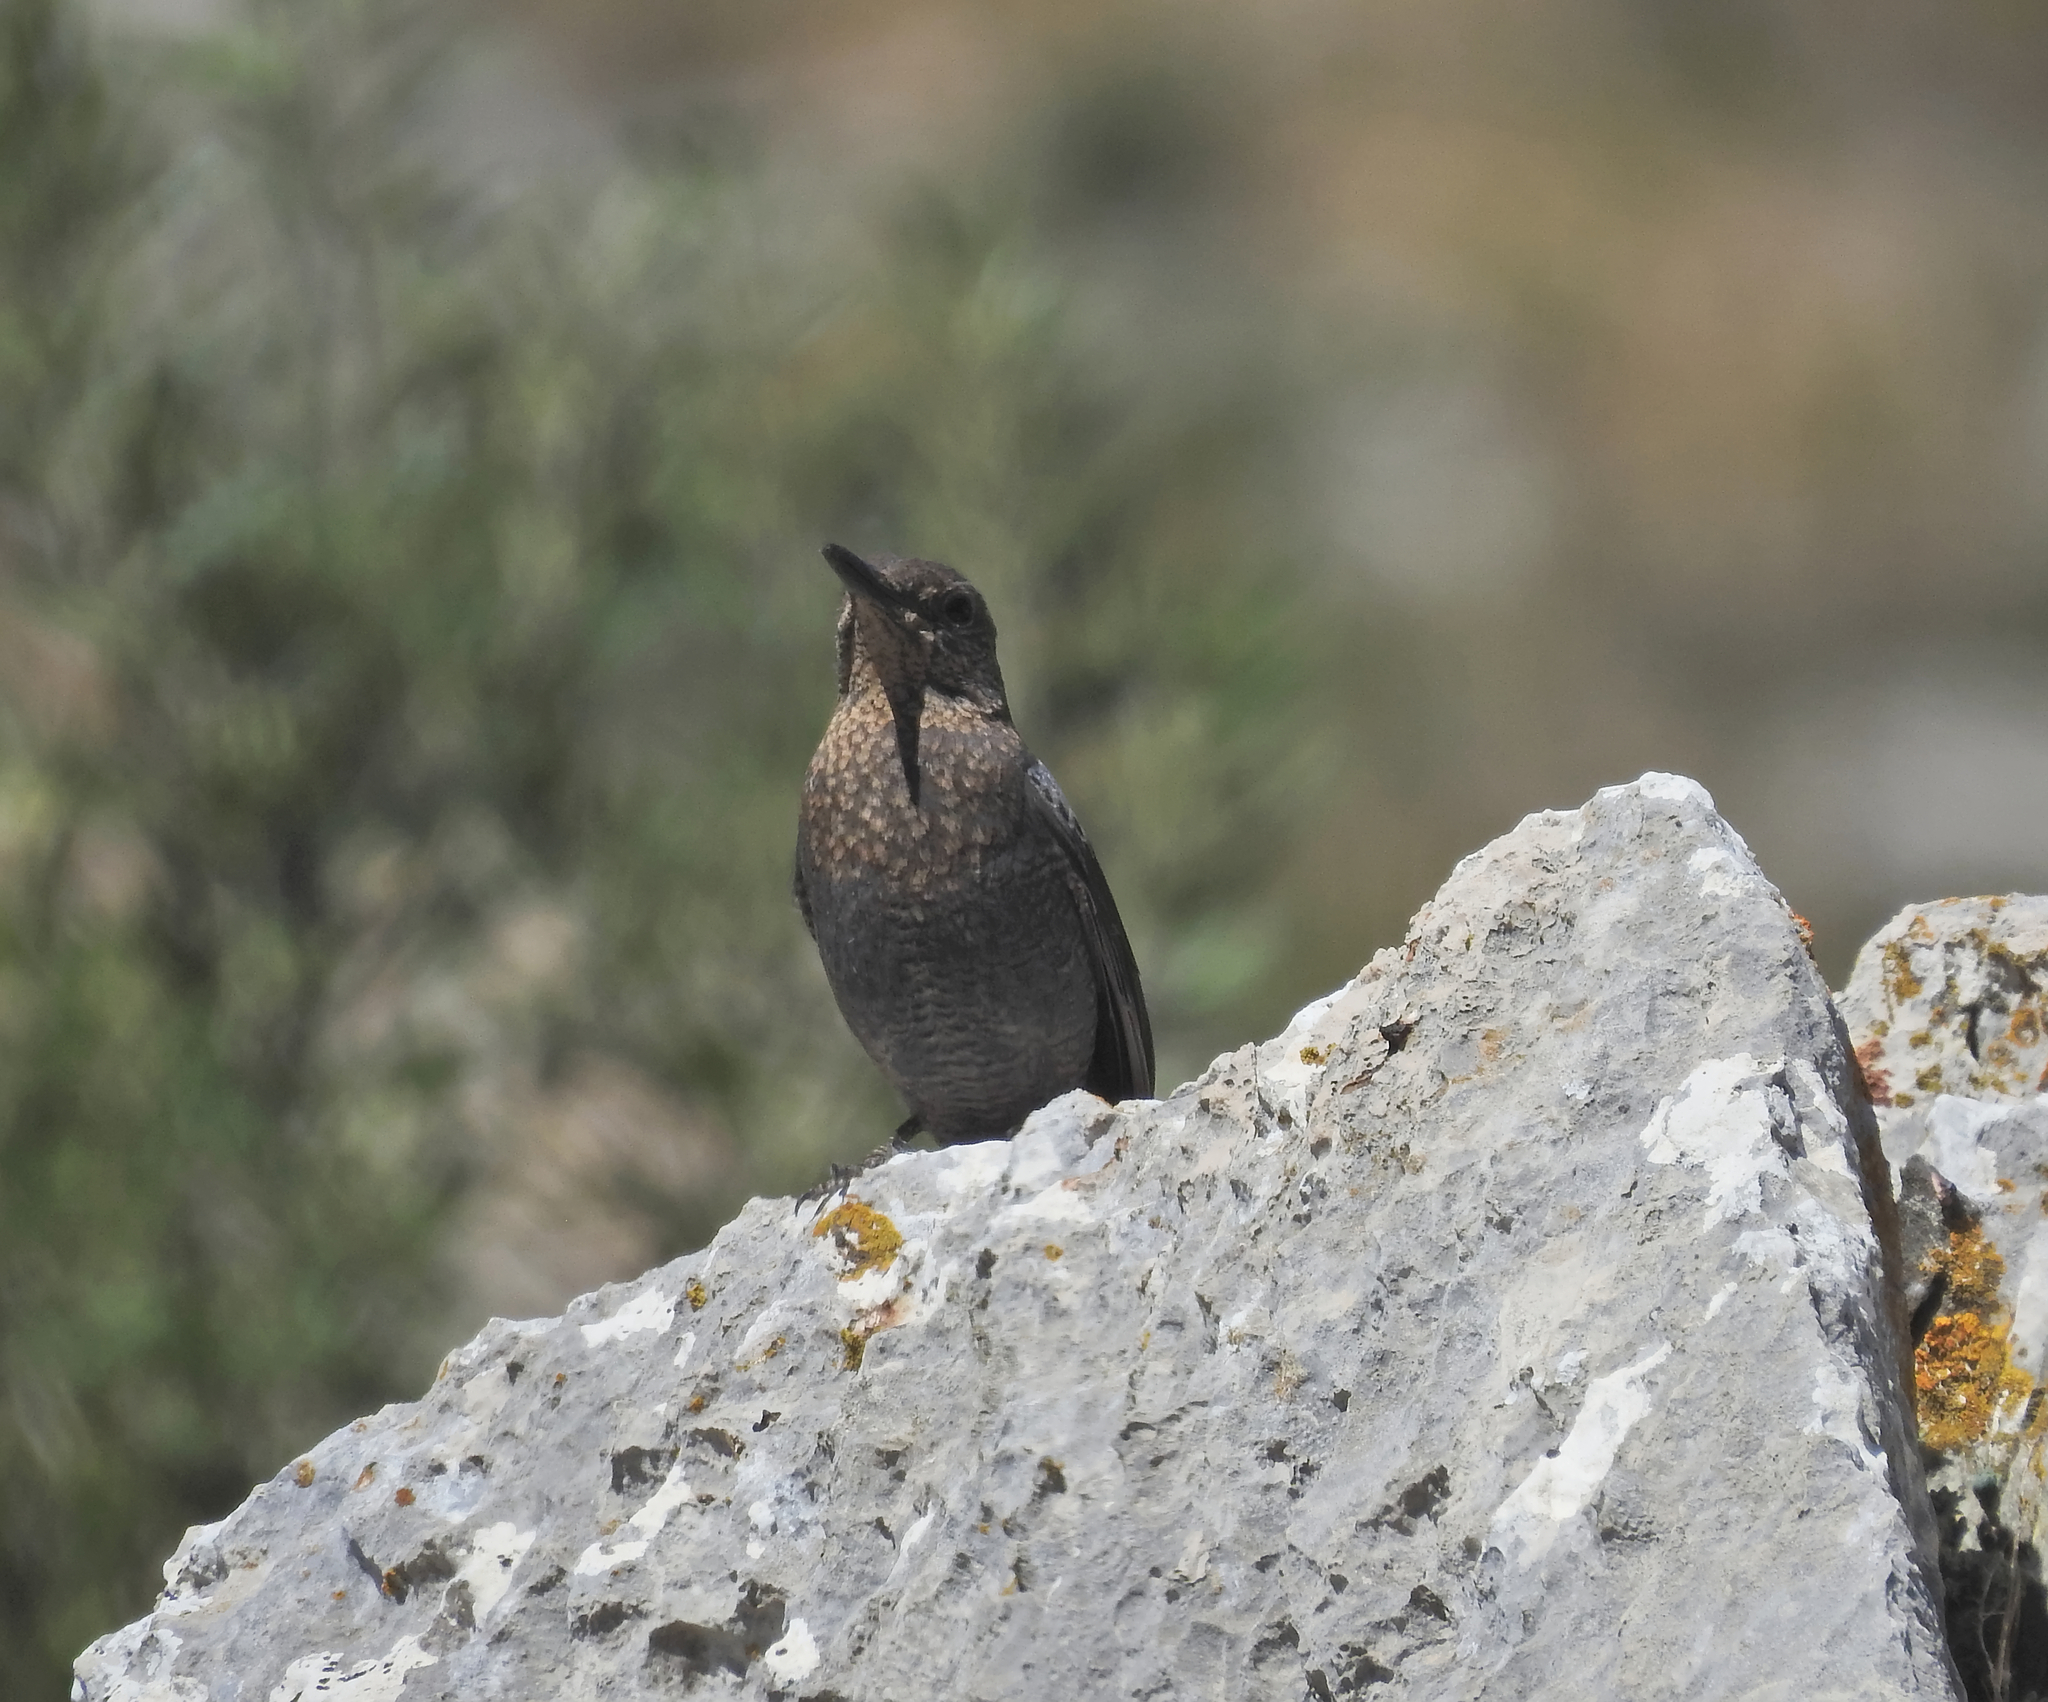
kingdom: Animalia
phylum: Chordata
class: Aves
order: Passeriformes
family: Muscicapidae
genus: Monticola
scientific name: Monticola solitarius
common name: Blue rock thrush
